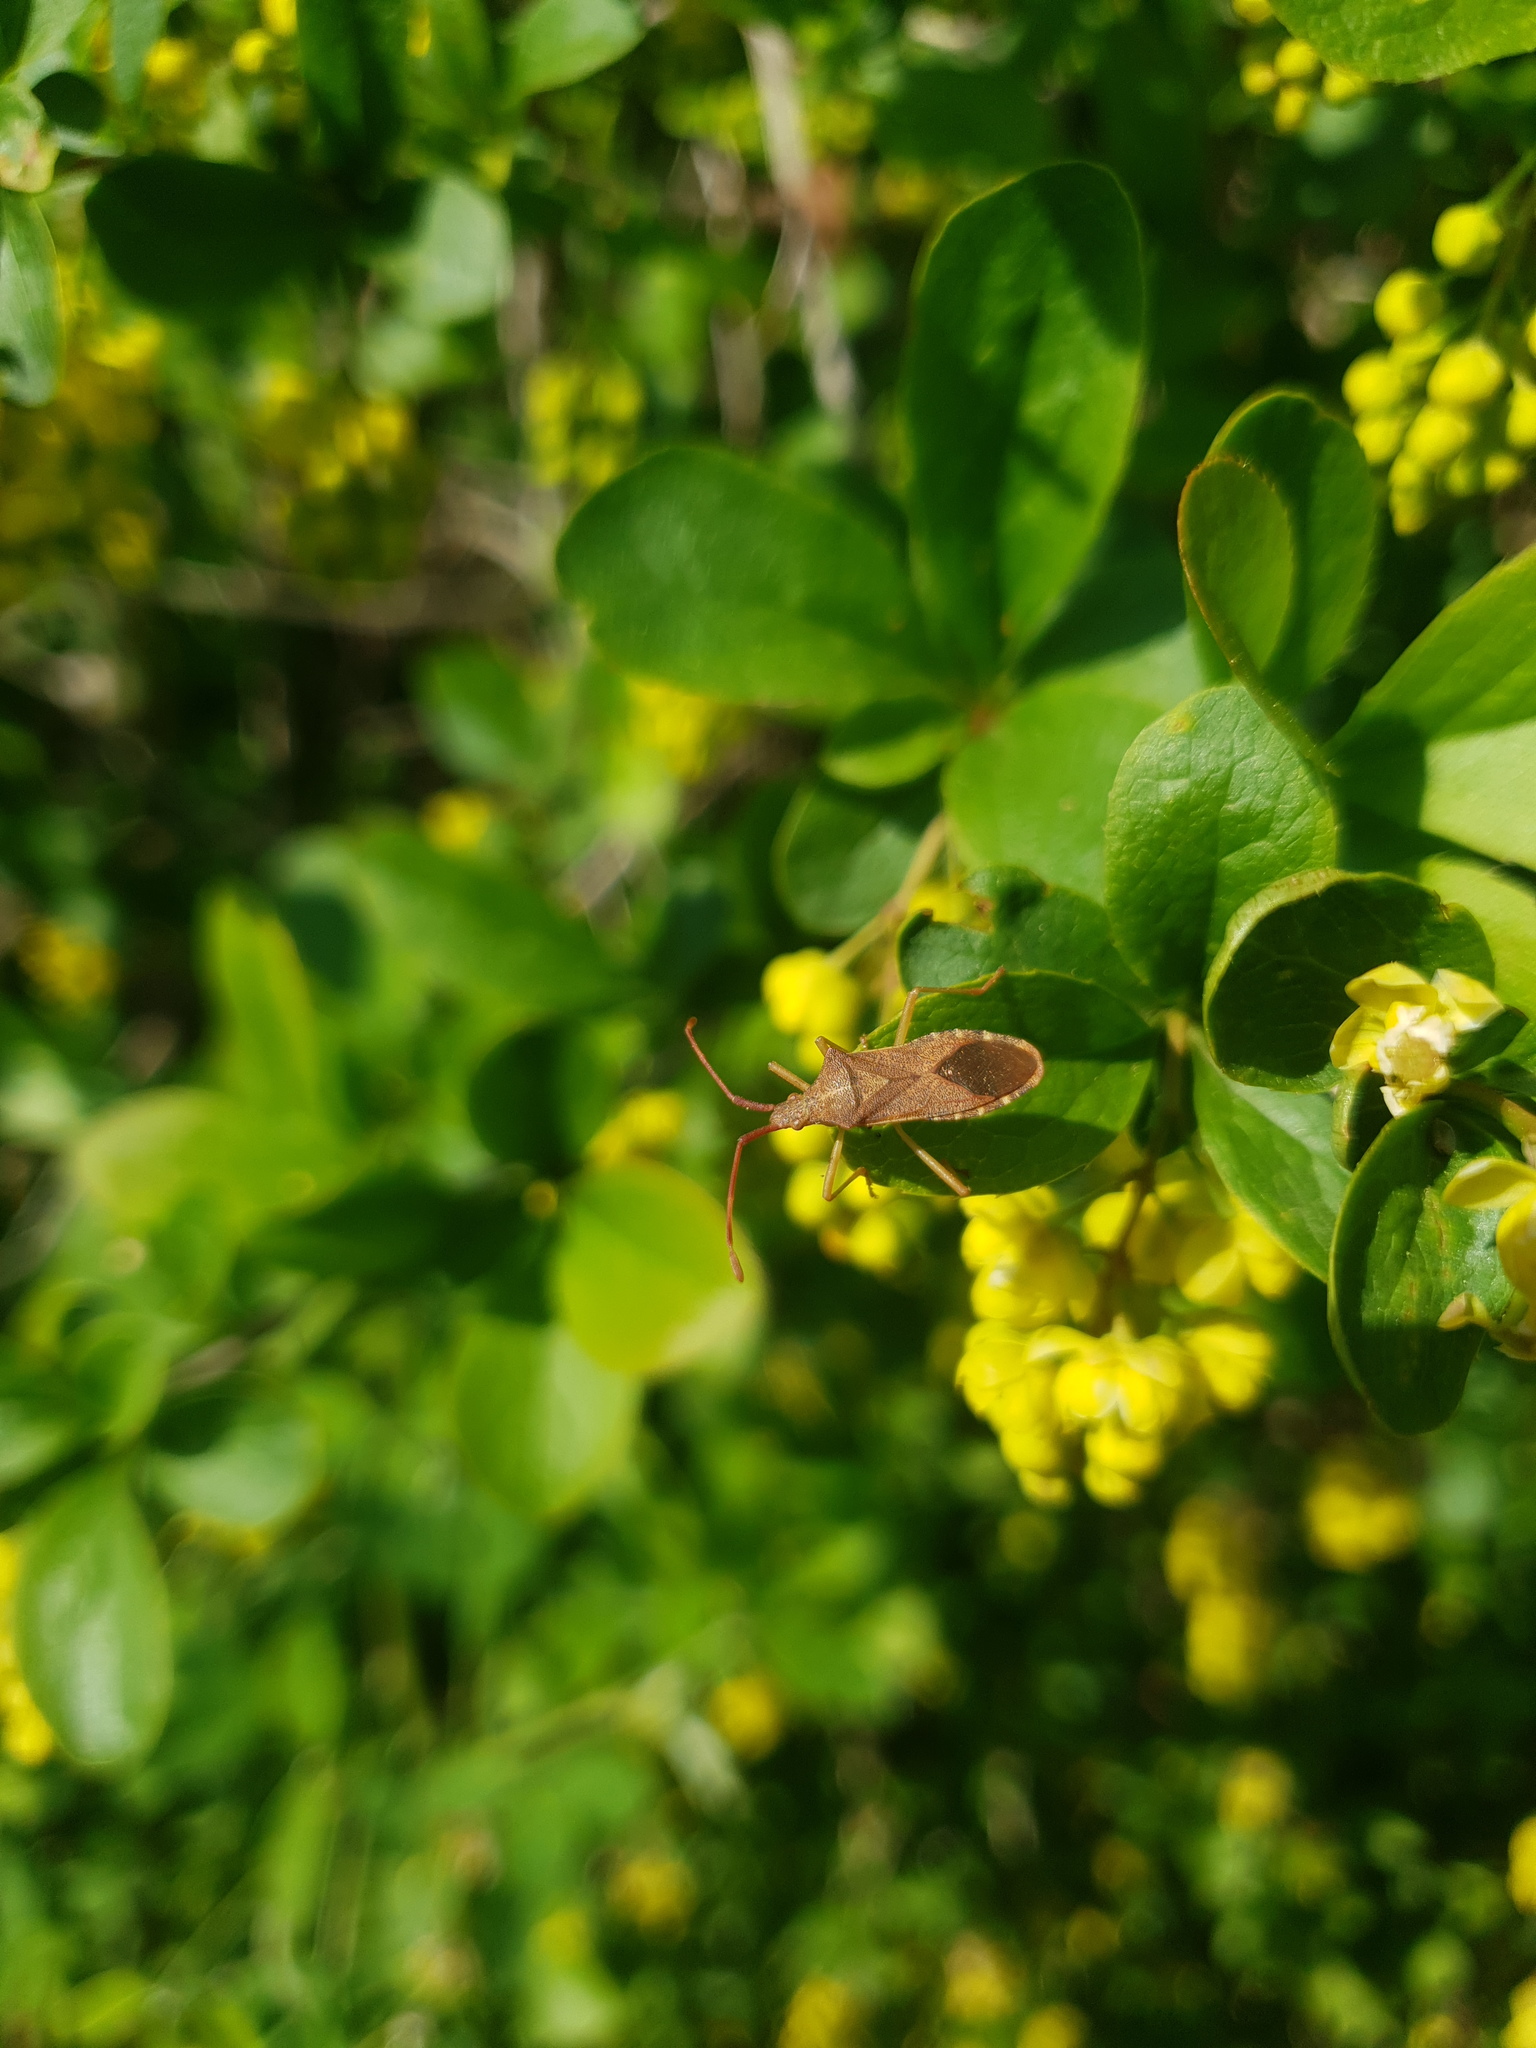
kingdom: Animalia
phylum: Arthropoda
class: Insecta
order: Hemiptera
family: Coreidae
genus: Gonocerus
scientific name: Gonocerus acuteangulatus
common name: Box bug
